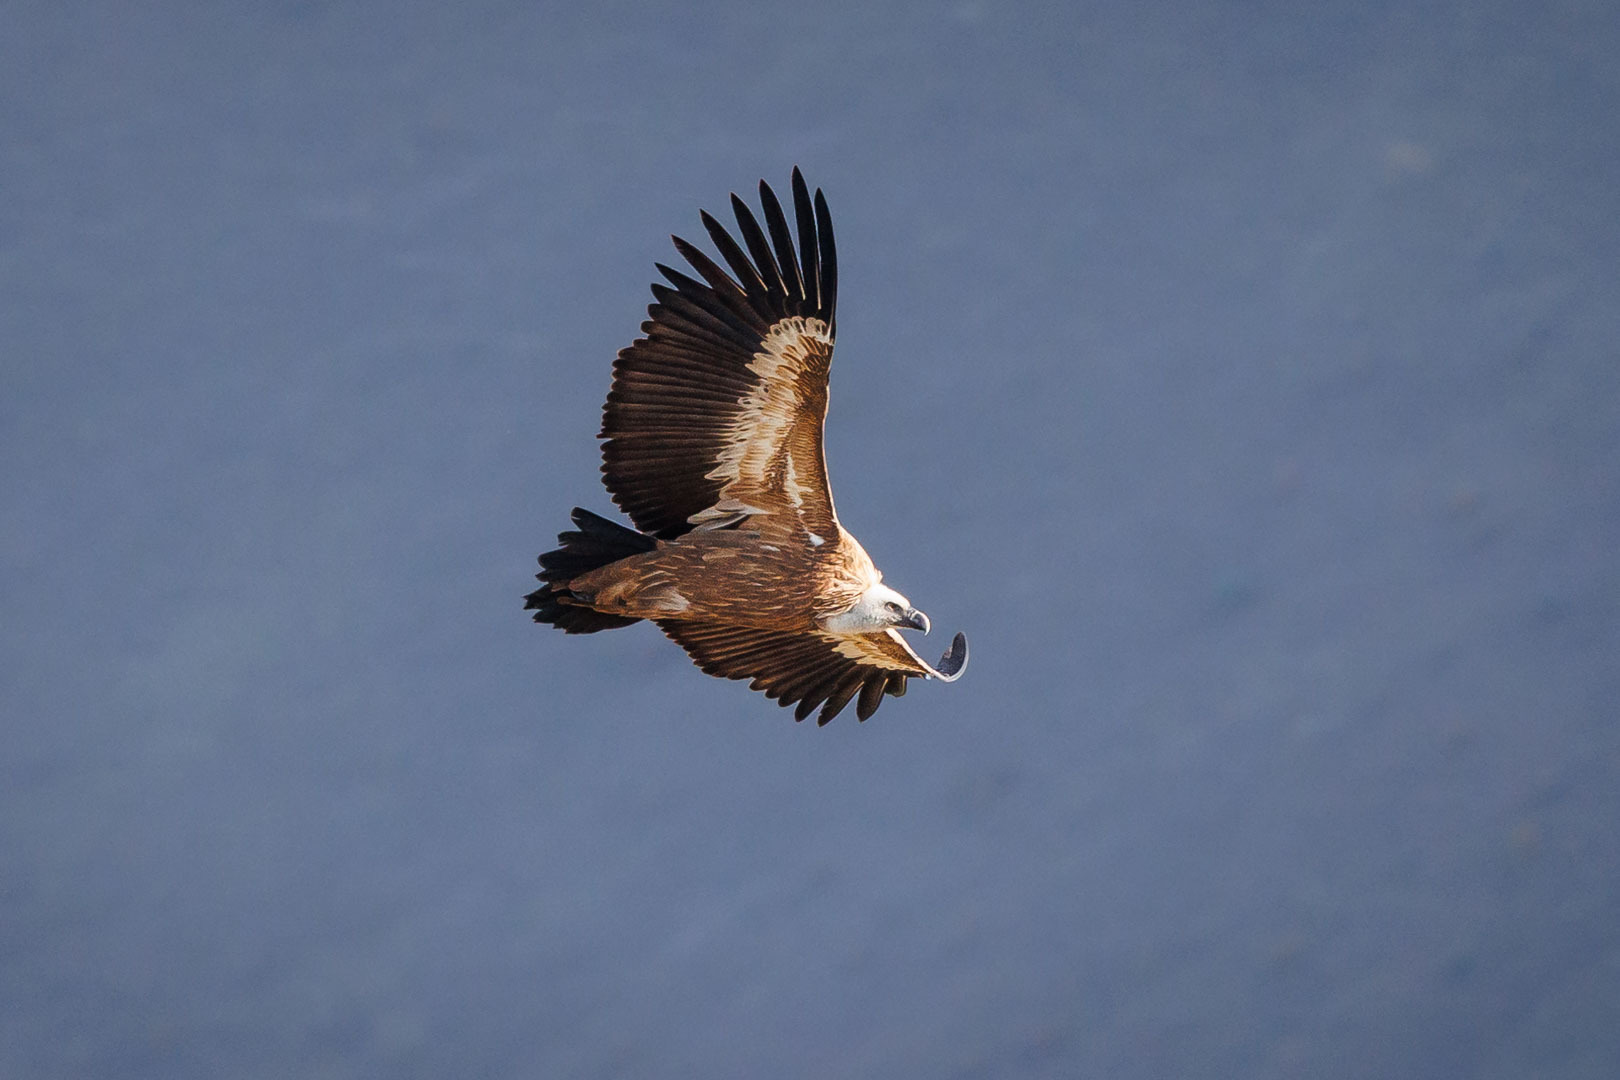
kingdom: Animalia
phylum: Chordata
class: Aves
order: Accipitriformes
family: Accipitridae
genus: Gyps
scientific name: Gyps fulvus
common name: Griffon vulture
